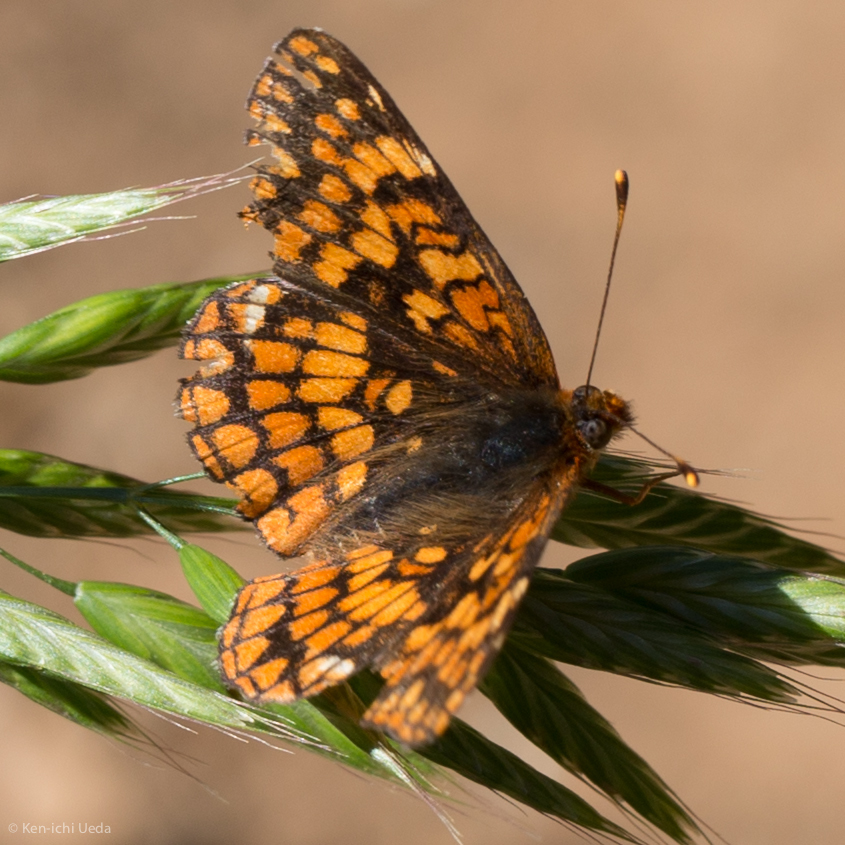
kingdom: Animalia
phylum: Arthropoda
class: Insecta
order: Lepidoptera
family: Nymphalidae
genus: Chlosyne
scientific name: Chlosyne palla
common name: Northern checkerspot
